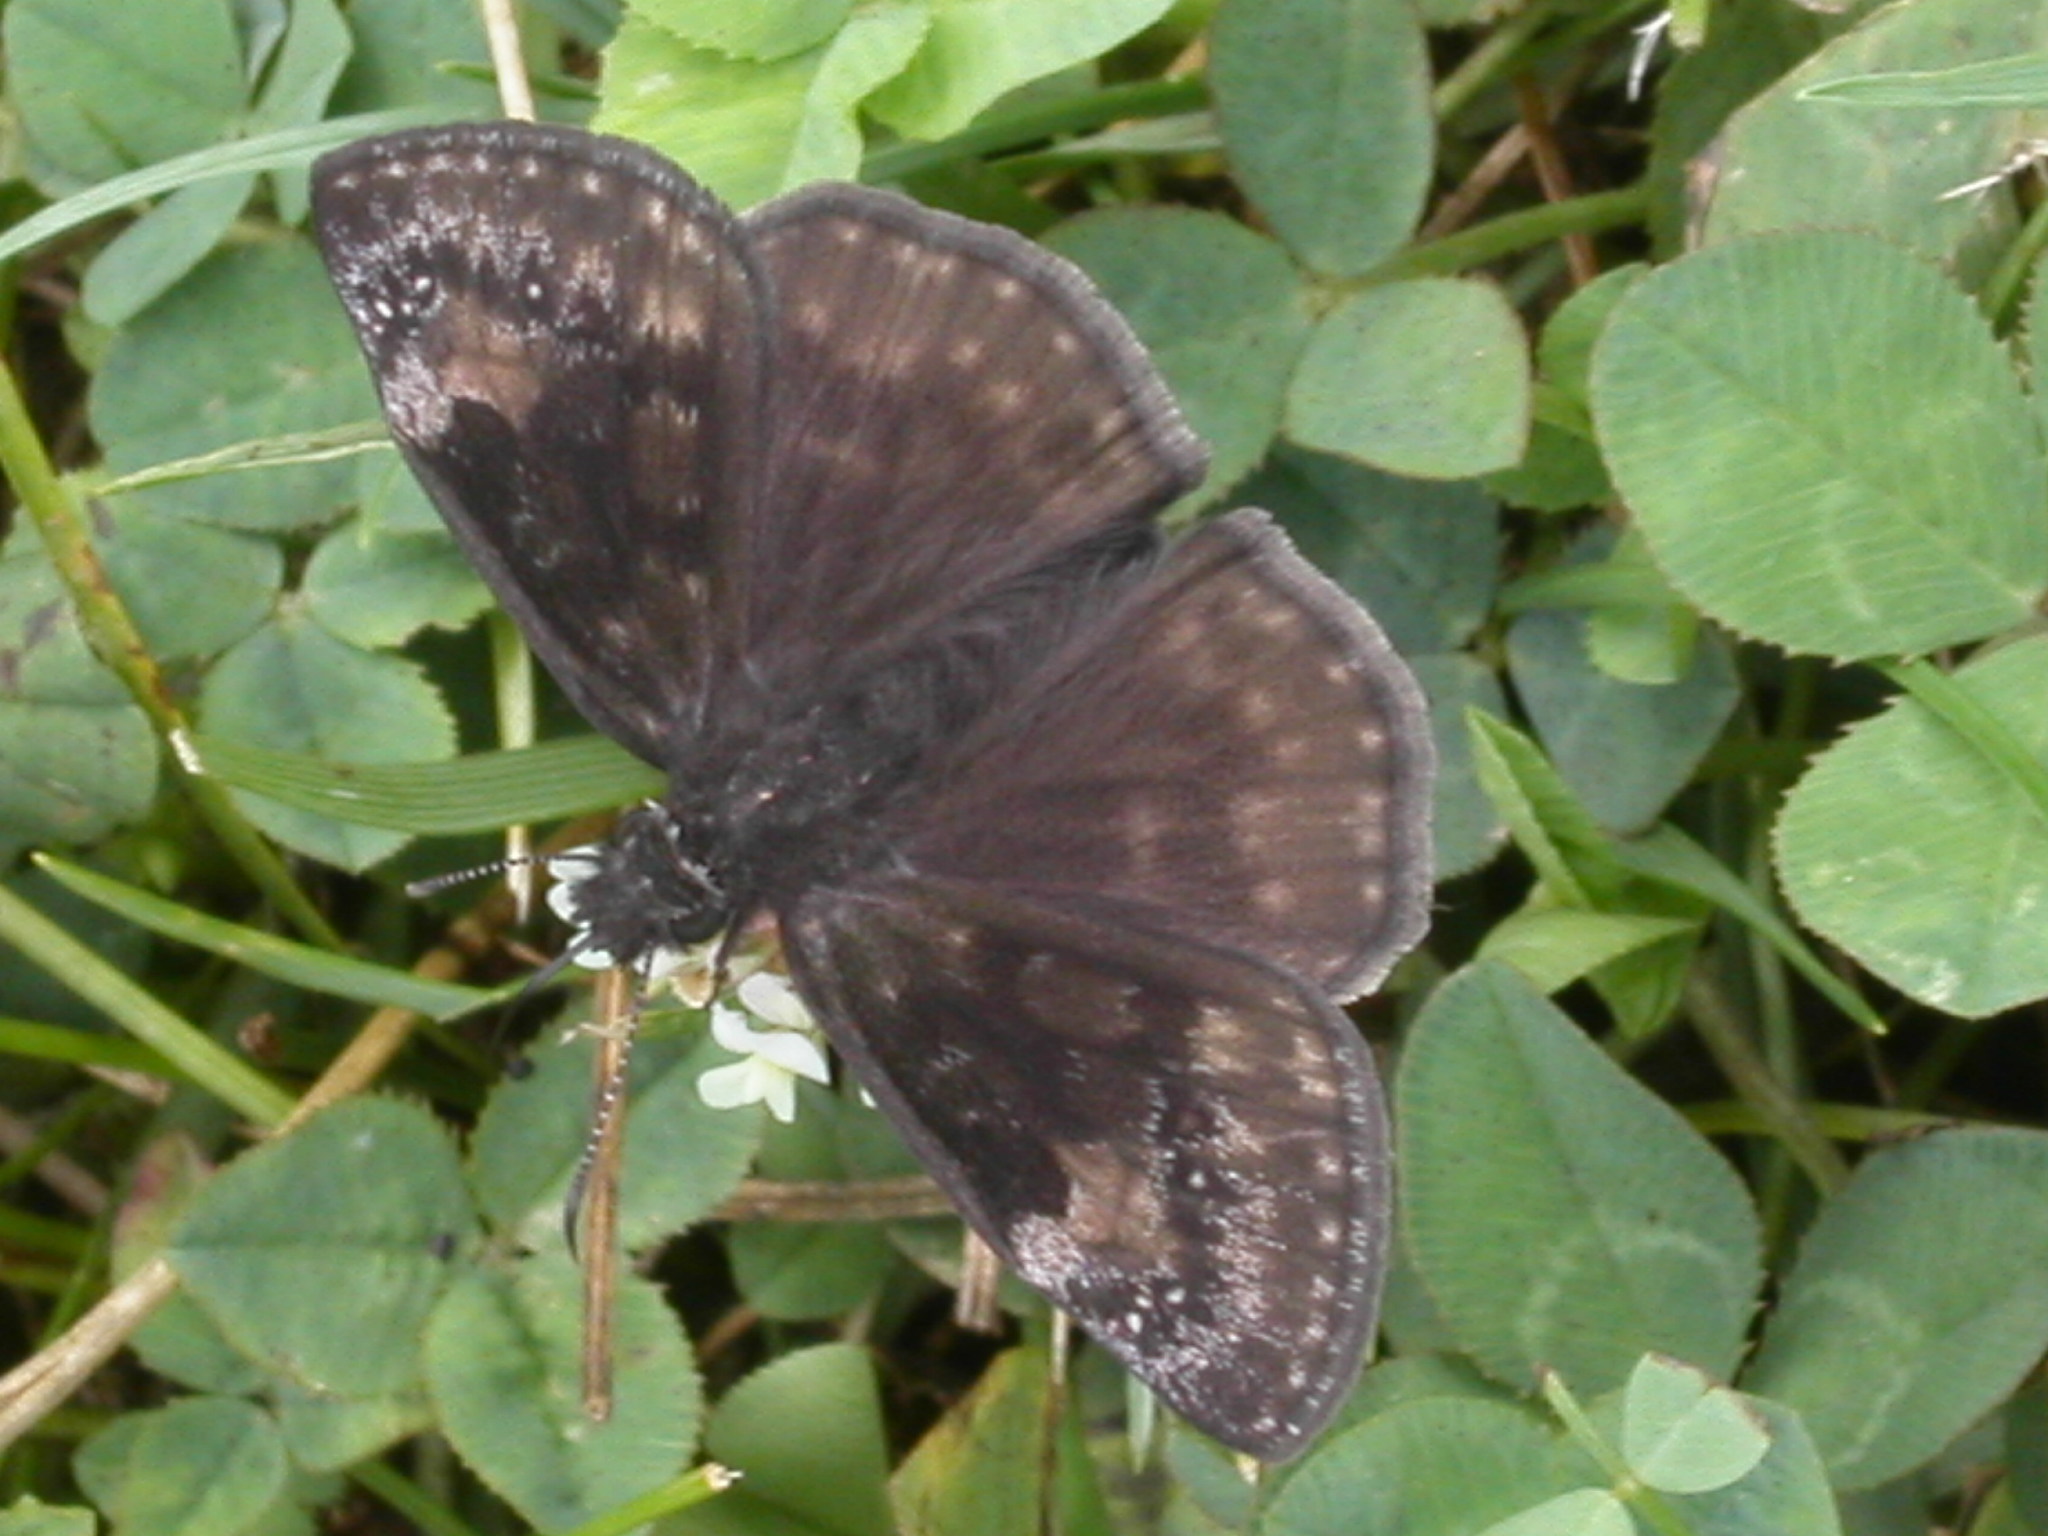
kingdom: Animalia
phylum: Arthropoda
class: Insecta
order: Lepidoptera
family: Hesperiidae
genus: Erynnis
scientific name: Erynnis baptisiae
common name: Wild indigo duskywing
